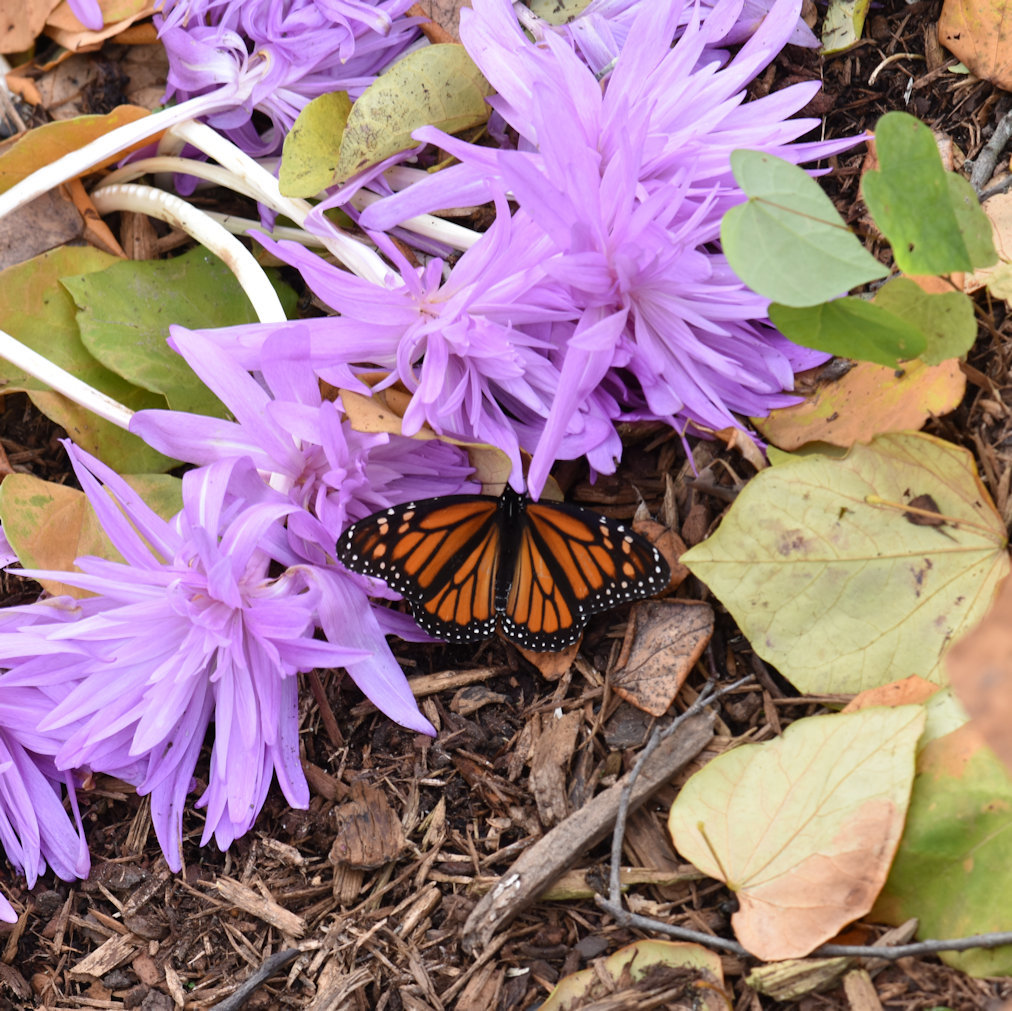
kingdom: Animalia
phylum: Arthropoda
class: Insecta
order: Lepidoptera
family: Nymphalidae
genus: Danaus
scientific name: Danaus plexippus
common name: Monarch
